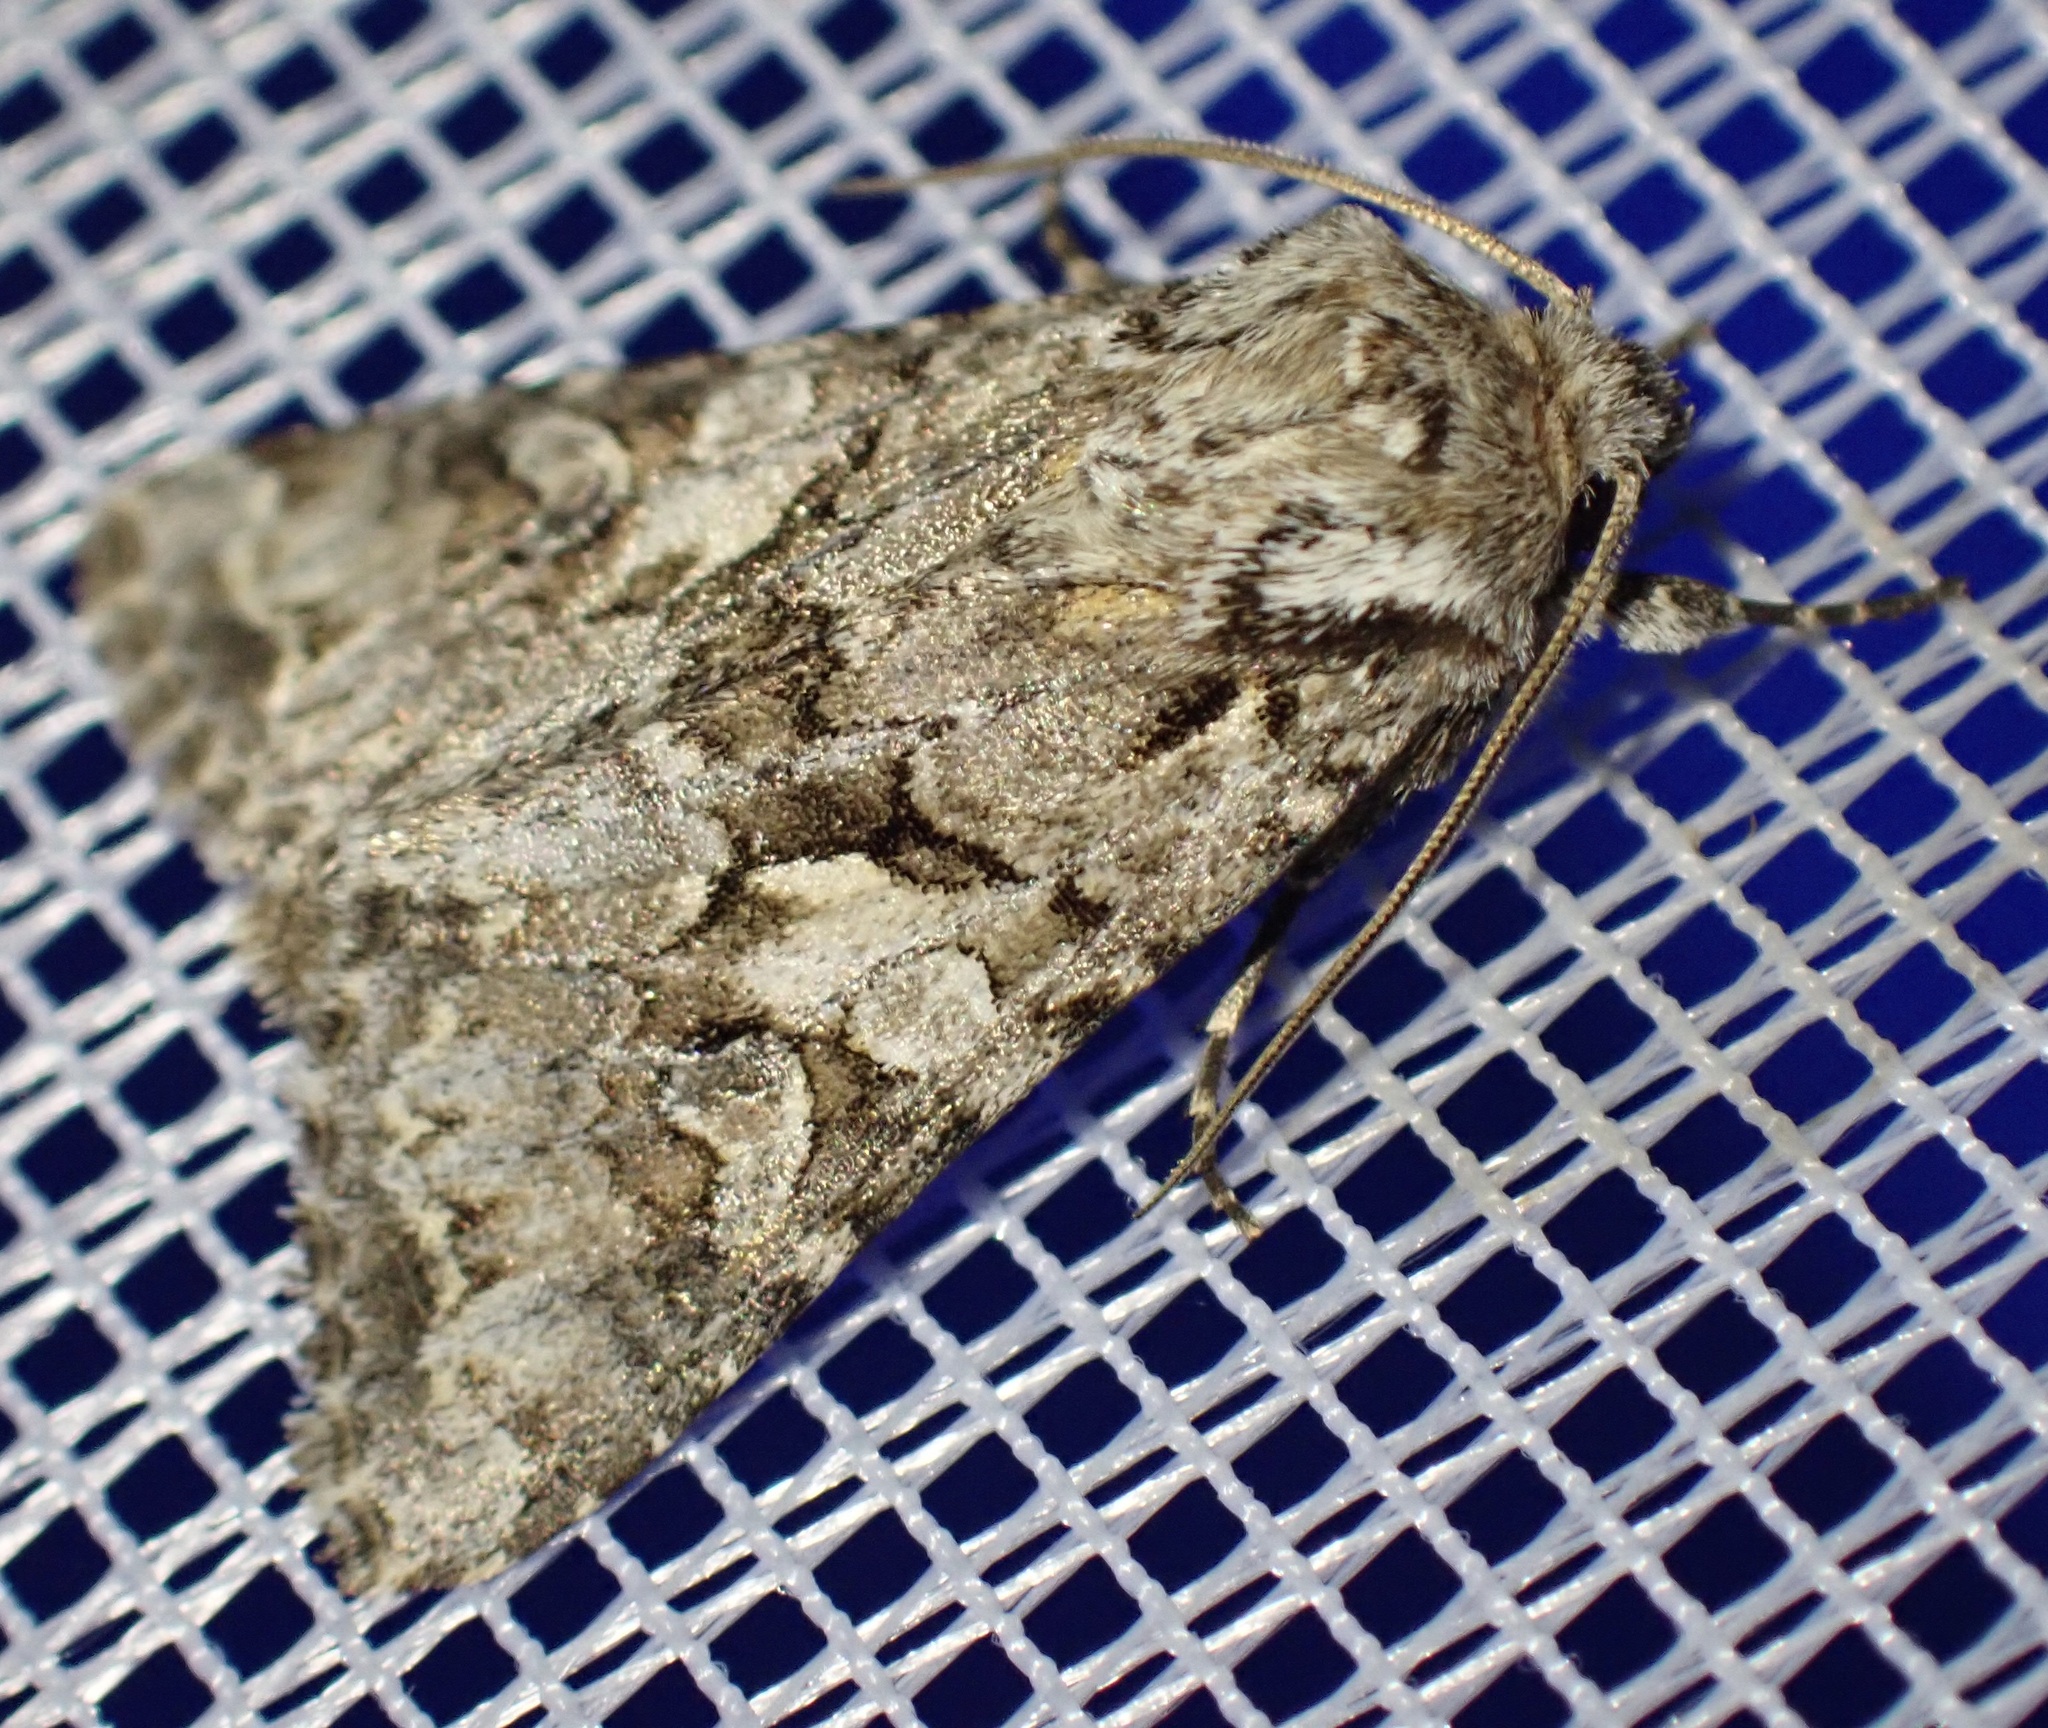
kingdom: Animalia
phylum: Arthropoda
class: Insecta
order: Lepidoptera
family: Noctuidae
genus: Hada
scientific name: Hada plebeja
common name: Shears
